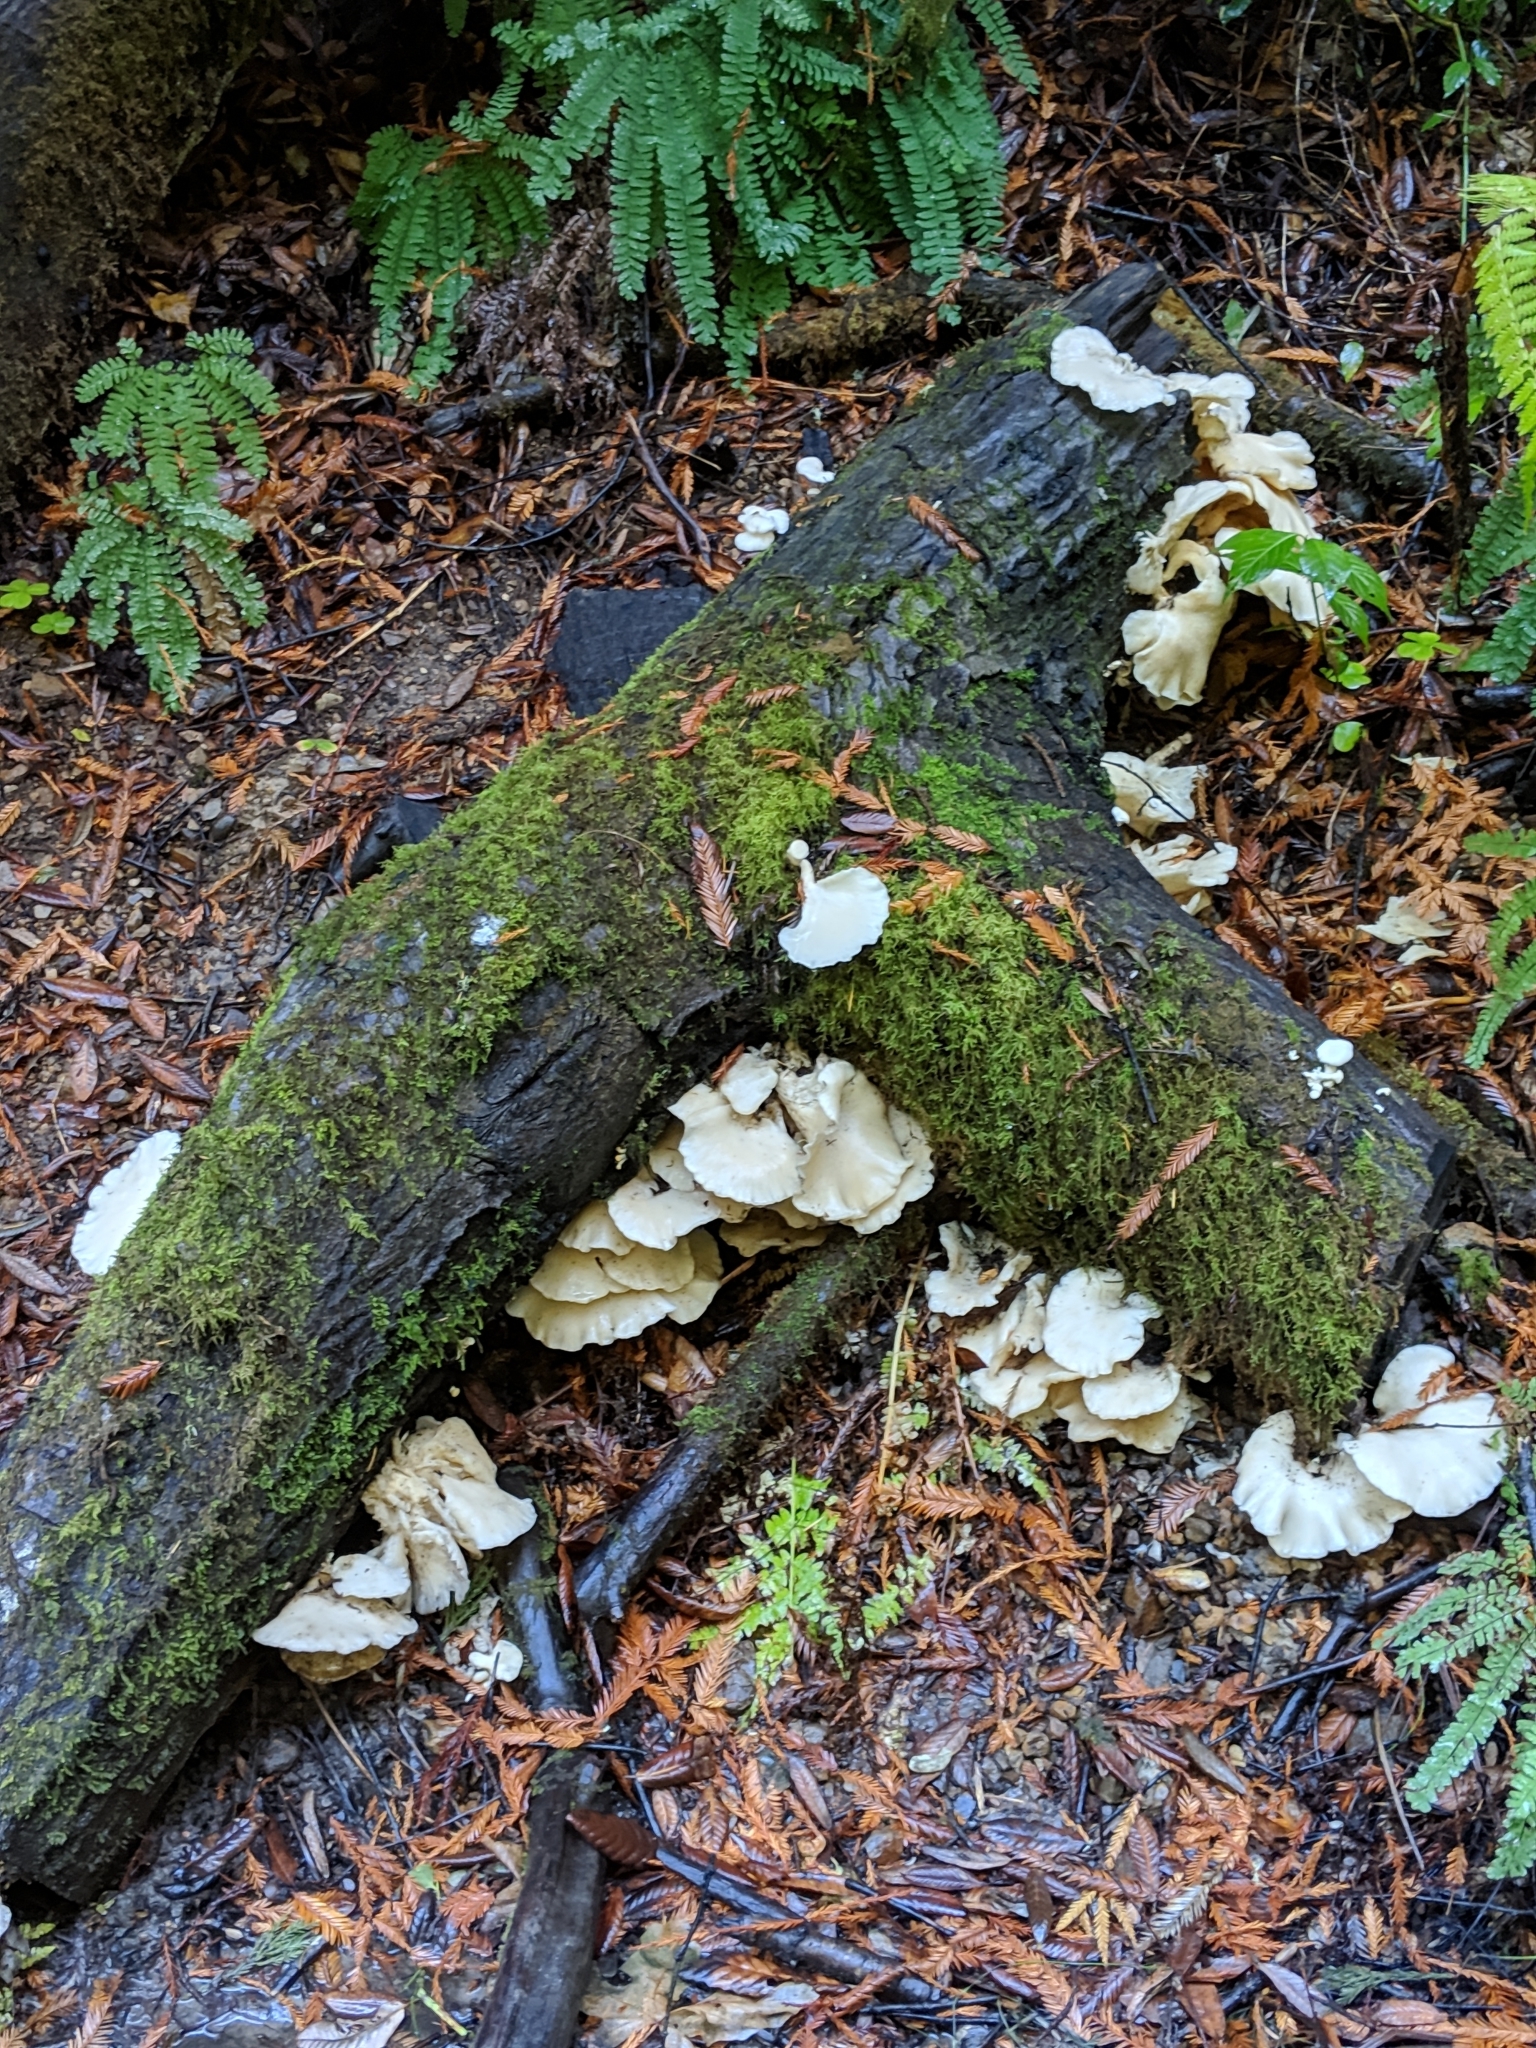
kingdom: Fungi
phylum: Basidiomycota
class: Agaricomycetes
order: Agaricales
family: Pleurotaceae
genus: Pleurotus
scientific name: Pleurotus ostreatus
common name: Oyster mushroom
